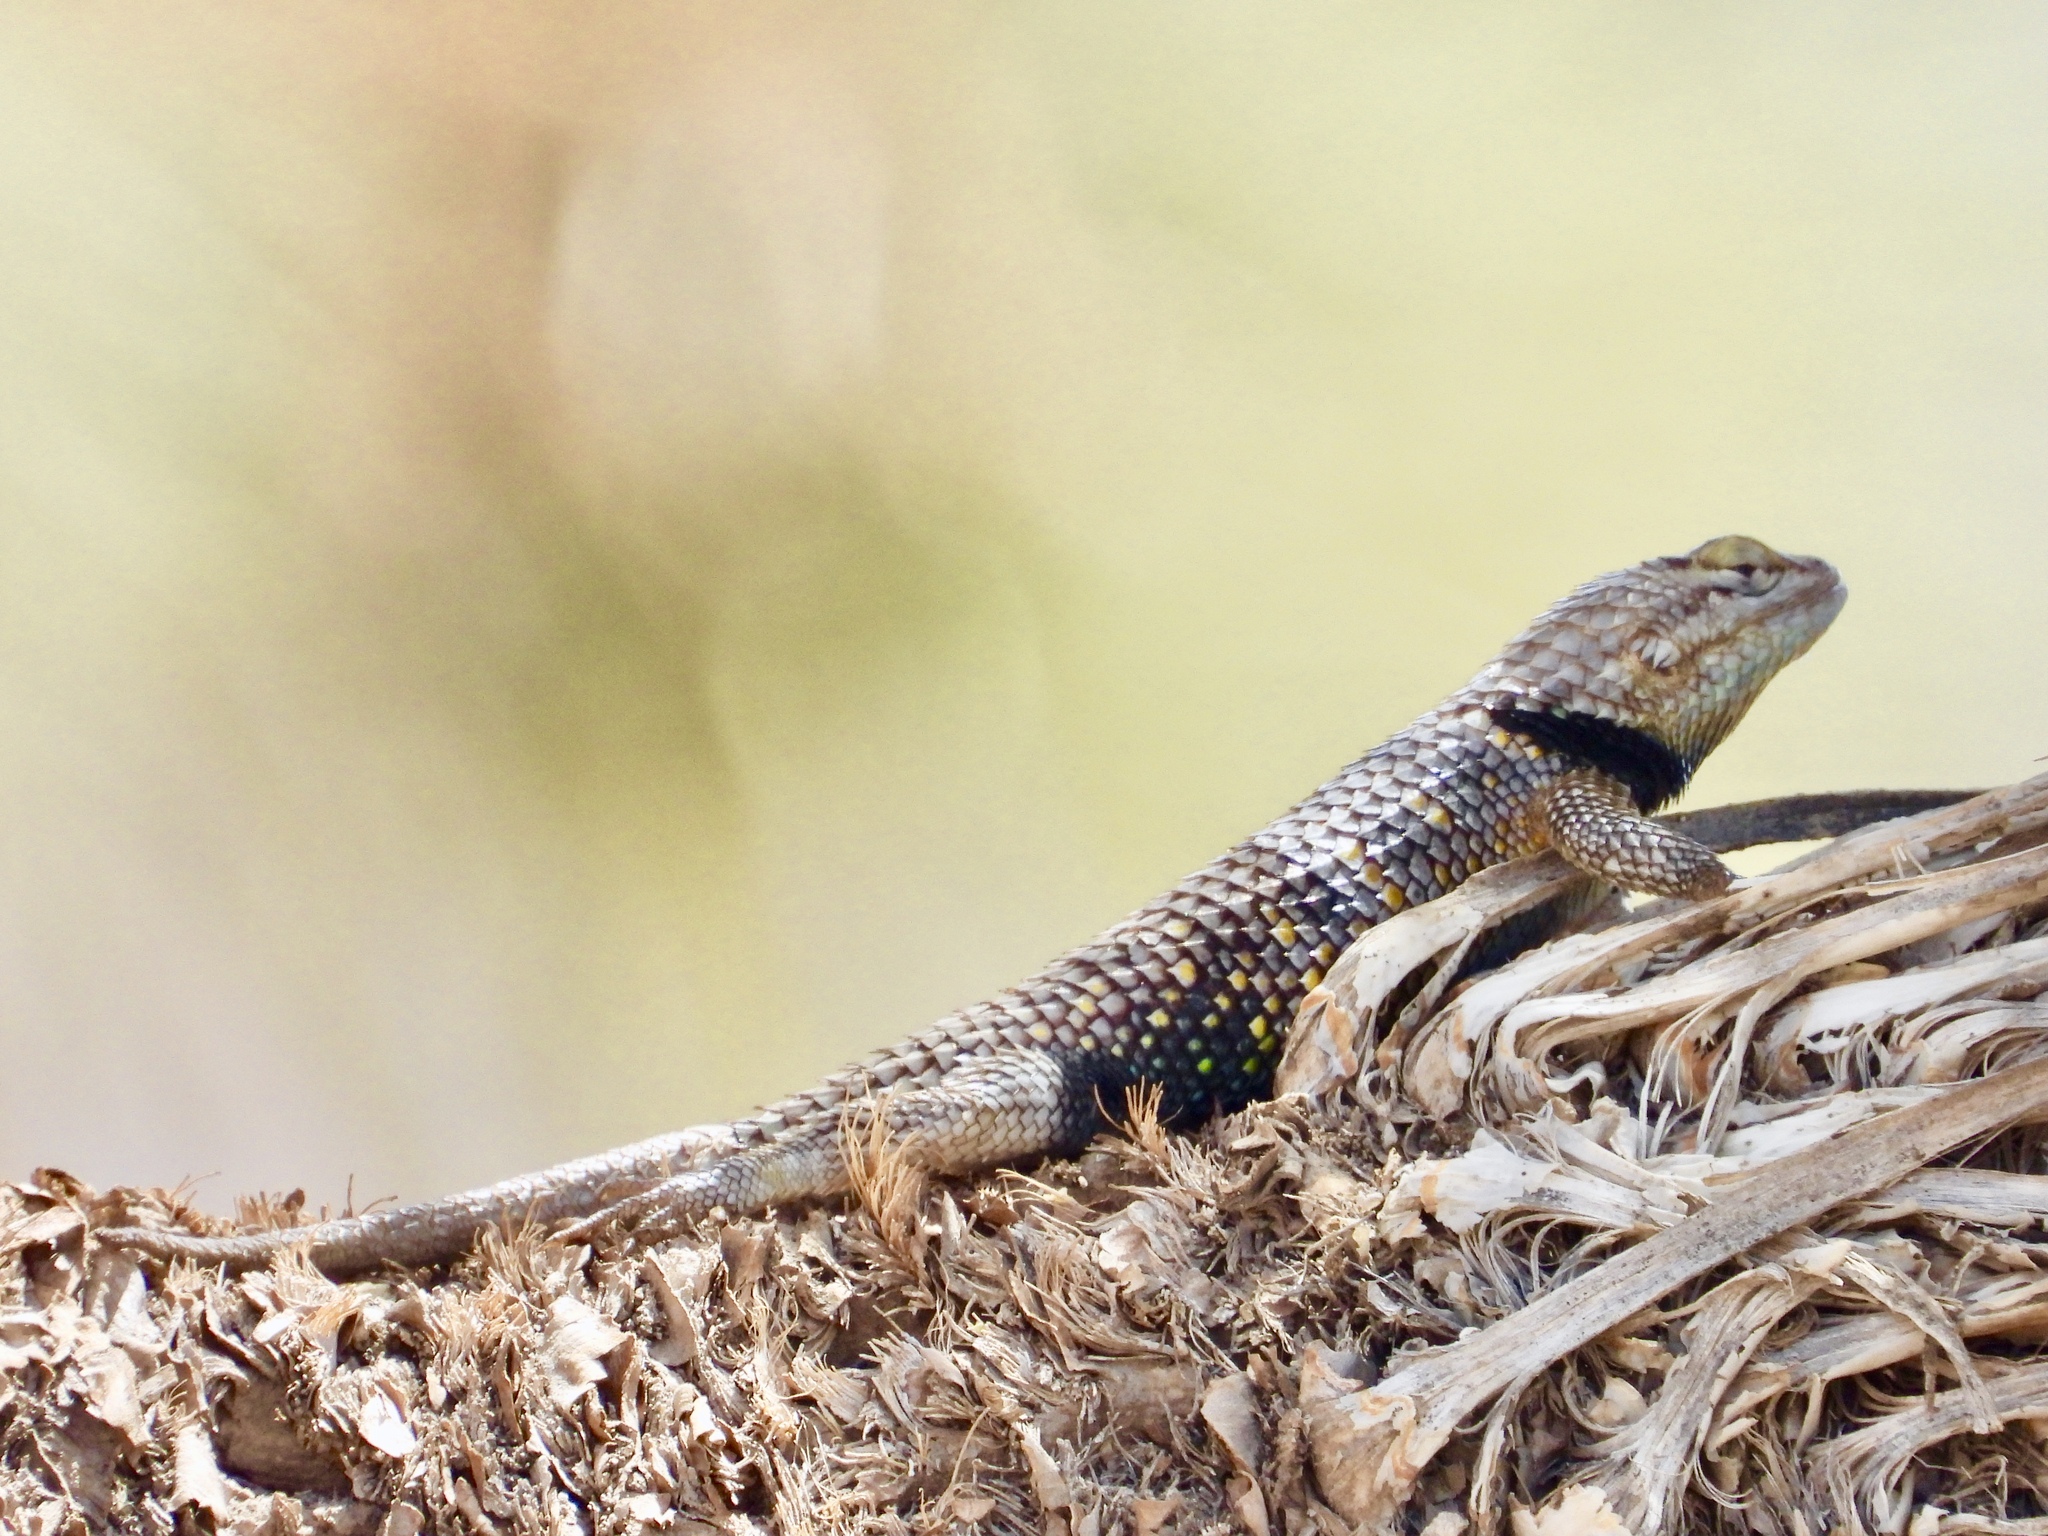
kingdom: Animalia
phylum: Chordata
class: Squamata
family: Phrynosomatidae
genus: Sceloporus
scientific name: Sceloporus magister
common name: Desert spiny lizard
